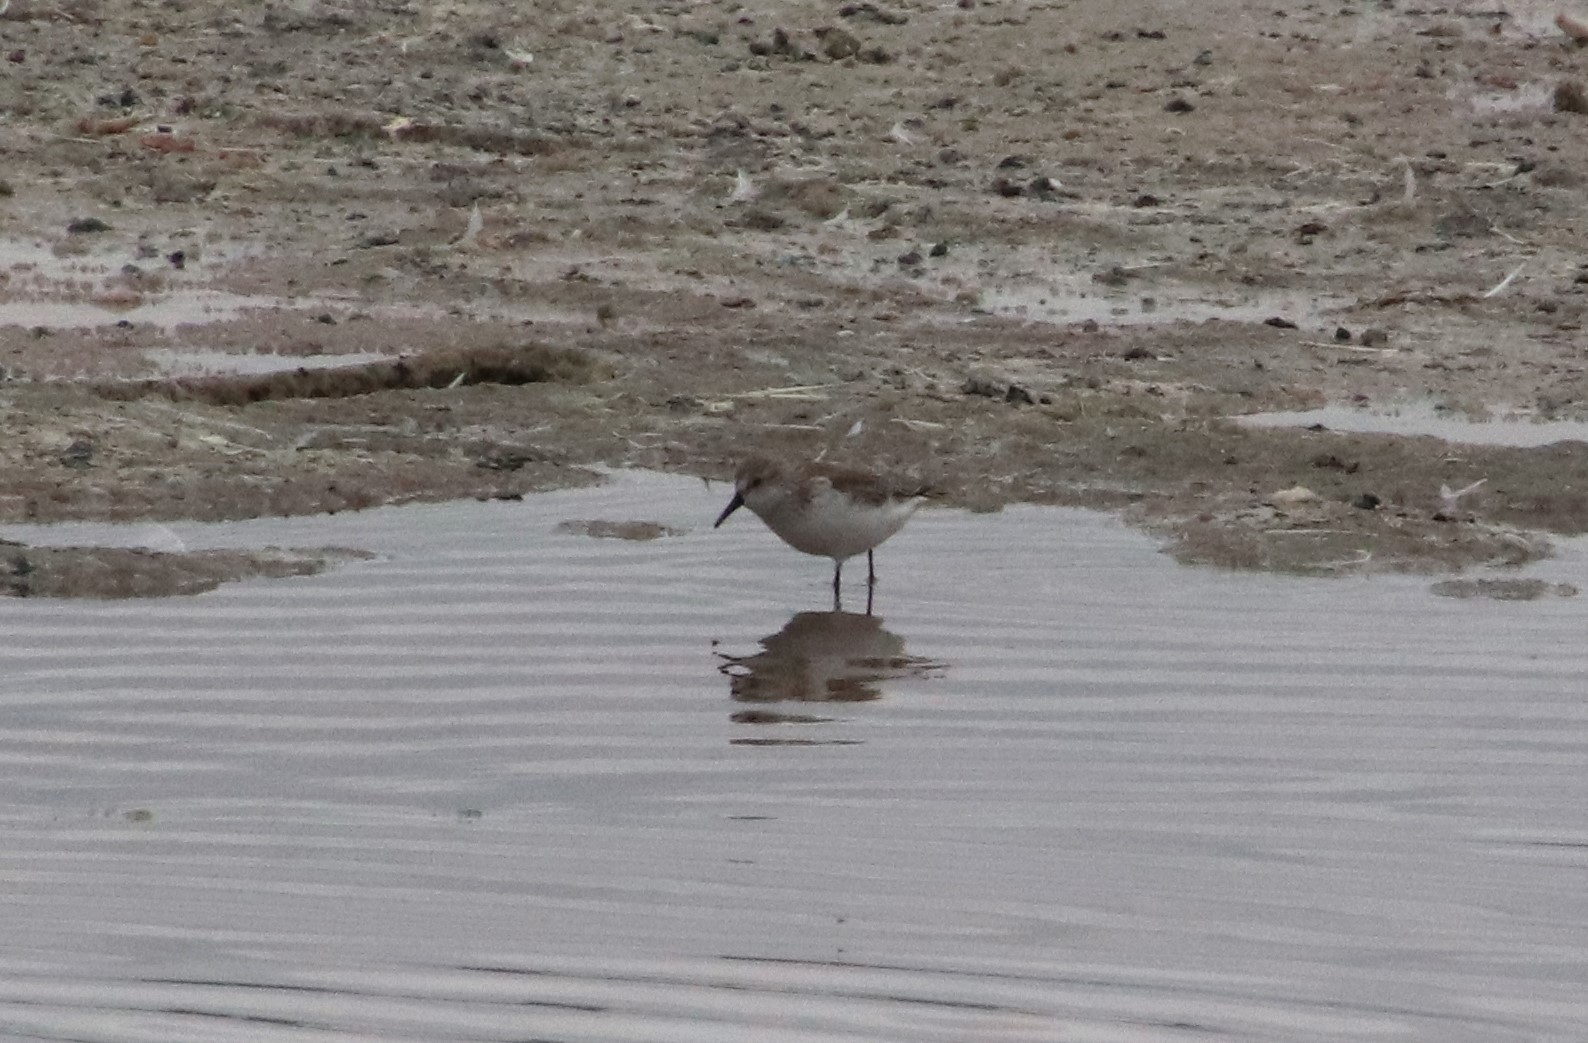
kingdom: Animalia
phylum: Chordata
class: Aves
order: Charadriiformes
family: Scolopacidae
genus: Calidris
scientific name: Calidris mauri
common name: Western sandpiper
